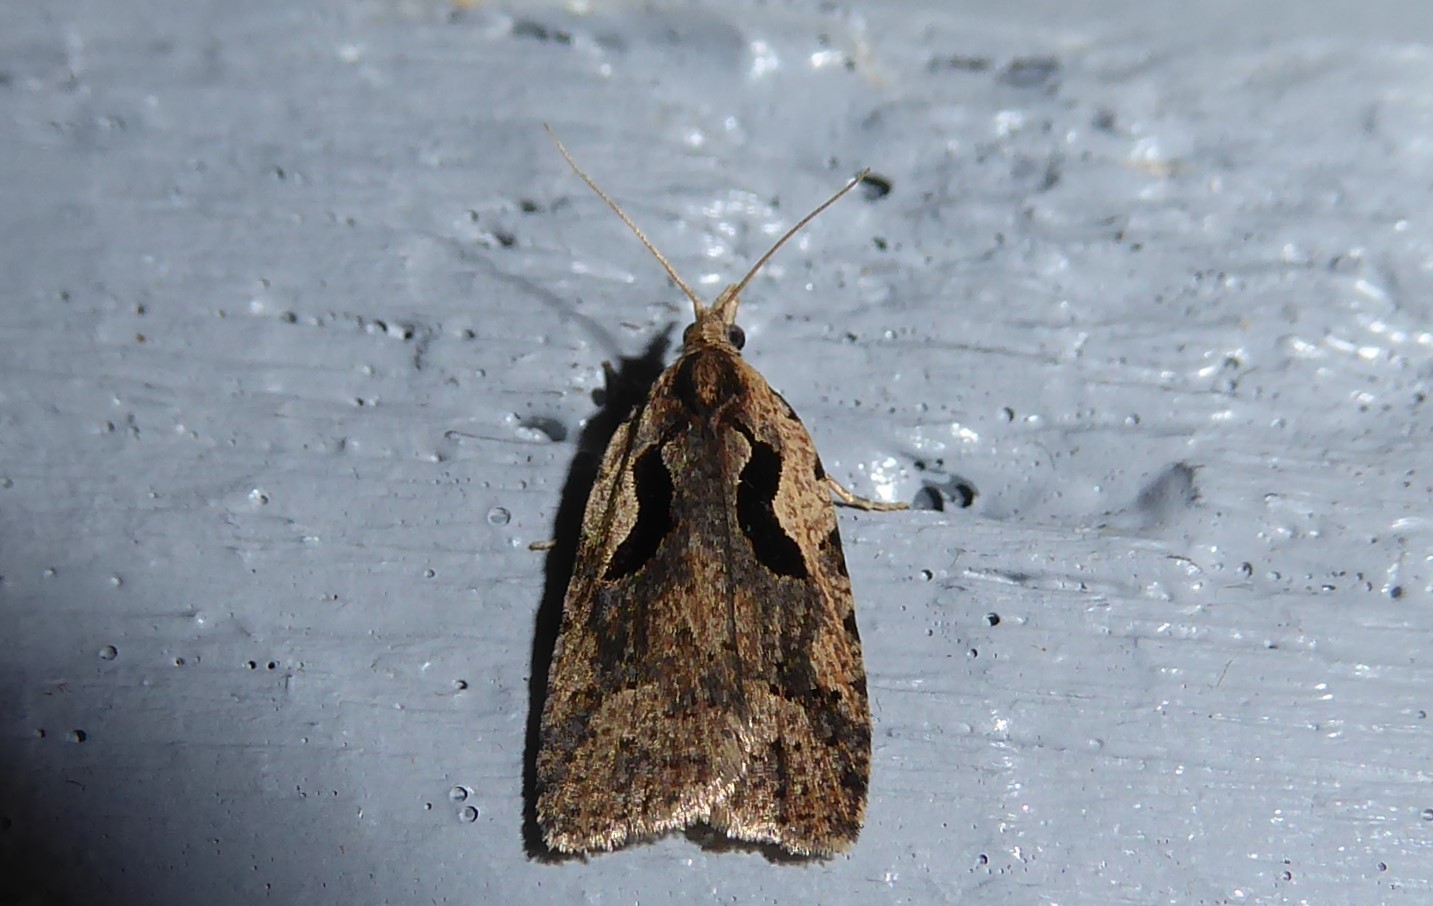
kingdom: Animalia
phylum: Arthropoda
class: Insecta
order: Lepidoptera
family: Tortricidae
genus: Cnephasia
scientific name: Cnephasia jactatana
